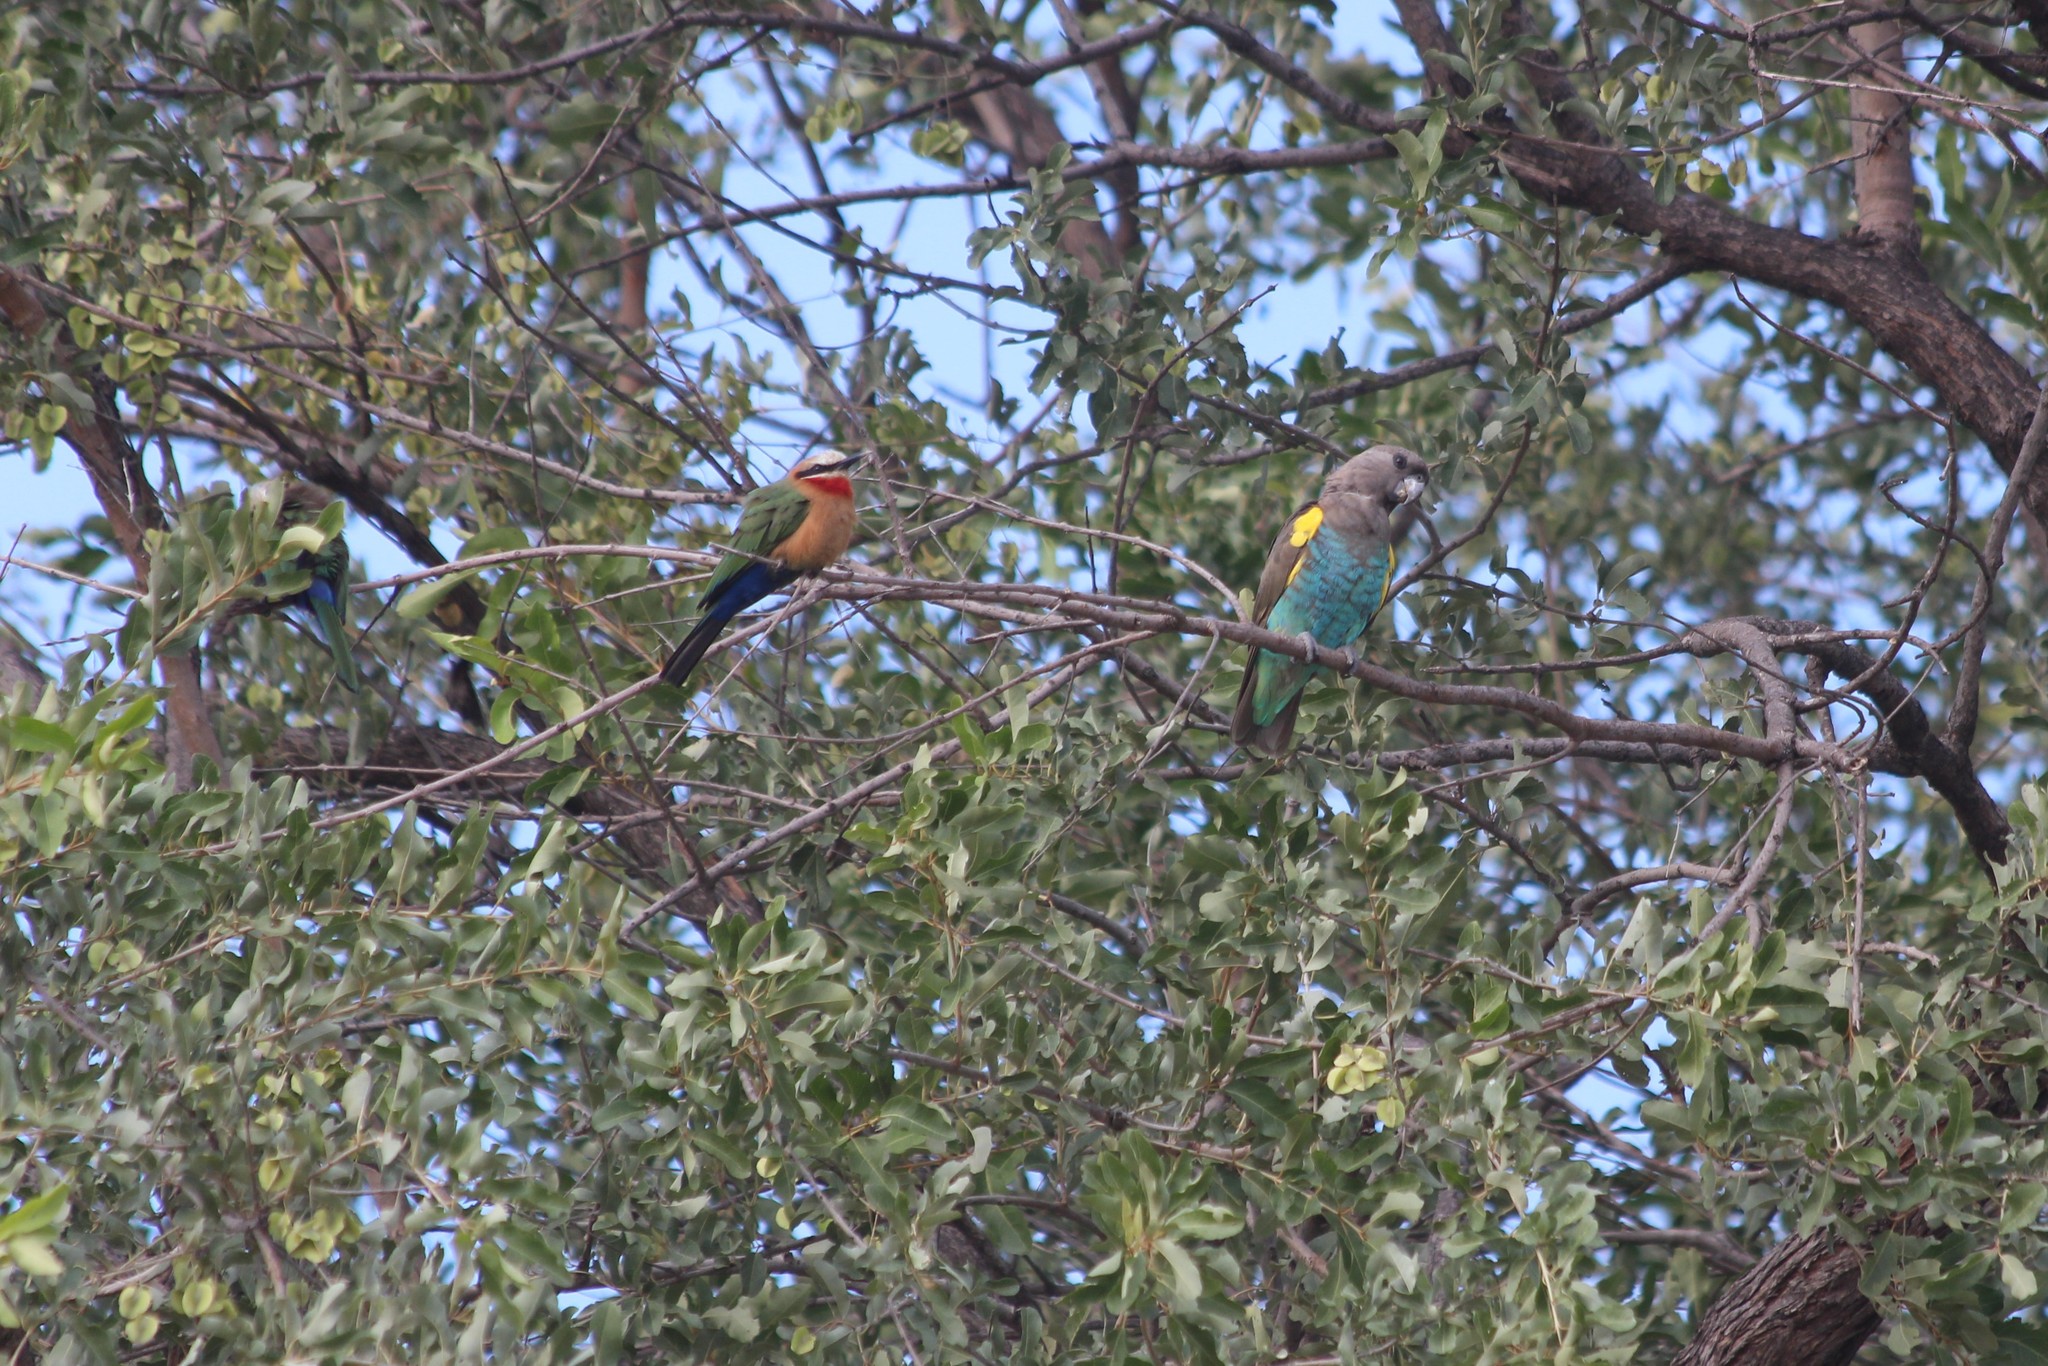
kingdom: Animalia
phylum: Chordata
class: Aves
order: Psittaciformes
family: Psittacidae
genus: Poicephalus
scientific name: Poicephalus meyeri
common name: Meyer's parrot
